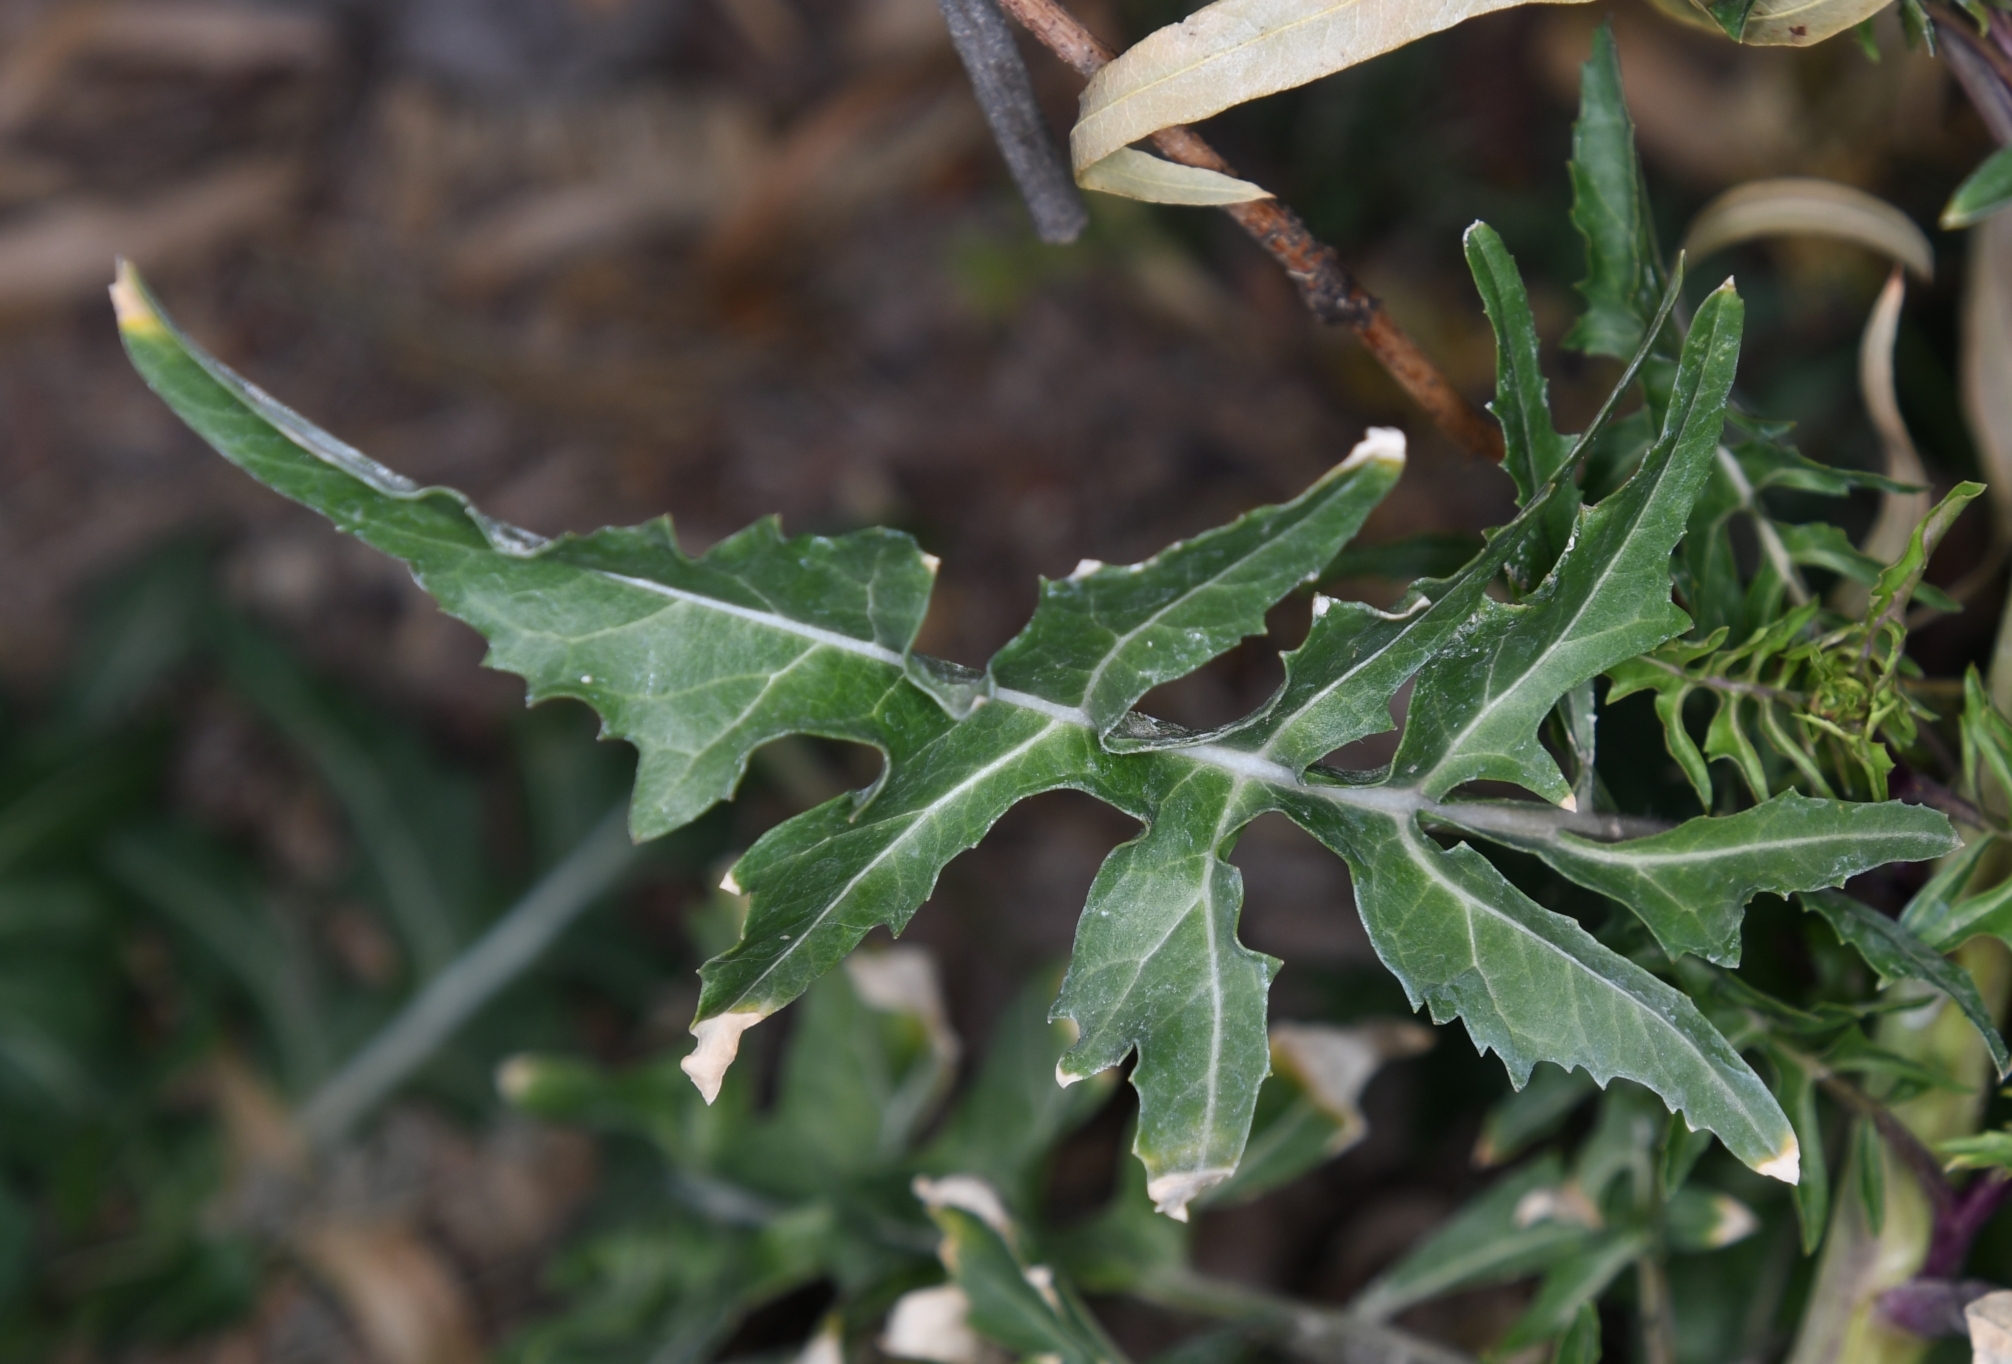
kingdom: Plantae
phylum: Tracheophyta
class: Magnoliopsida
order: Brassicales
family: Brassicaceae
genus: Sisymbrium
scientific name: Sisymbrium irio
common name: London rocket
